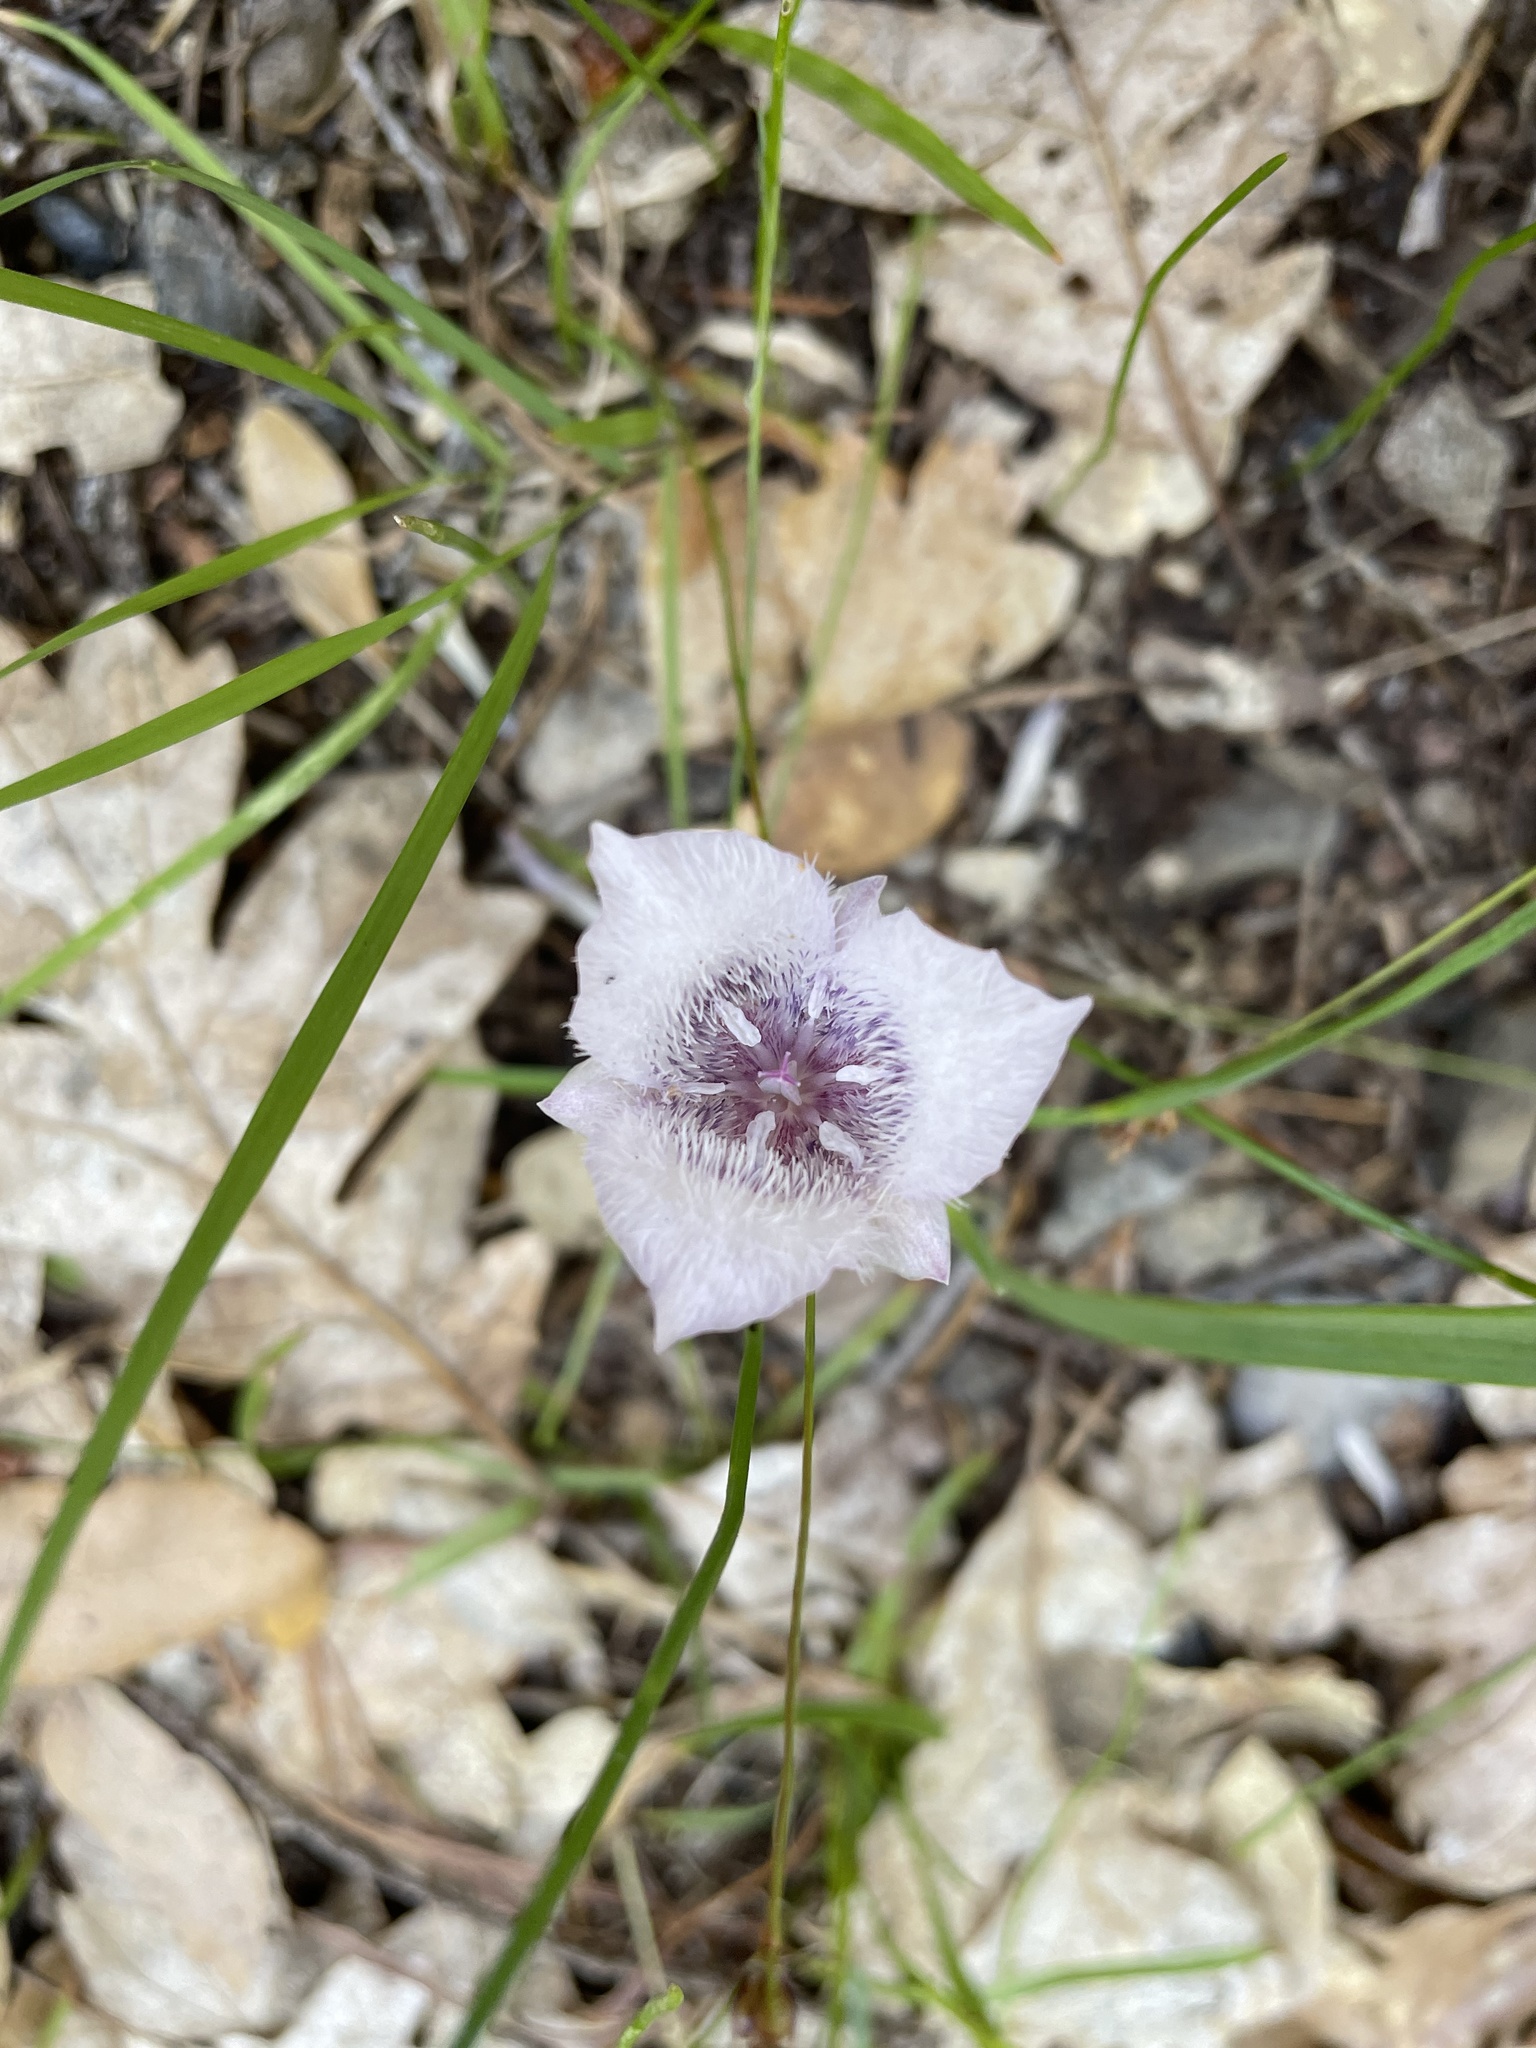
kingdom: Plantae
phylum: Tracheophyta
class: Liliopsida
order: Liliales
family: Liliaceae
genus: Calochortus
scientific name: Calochortus tolmiei
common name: Pussy-ears
